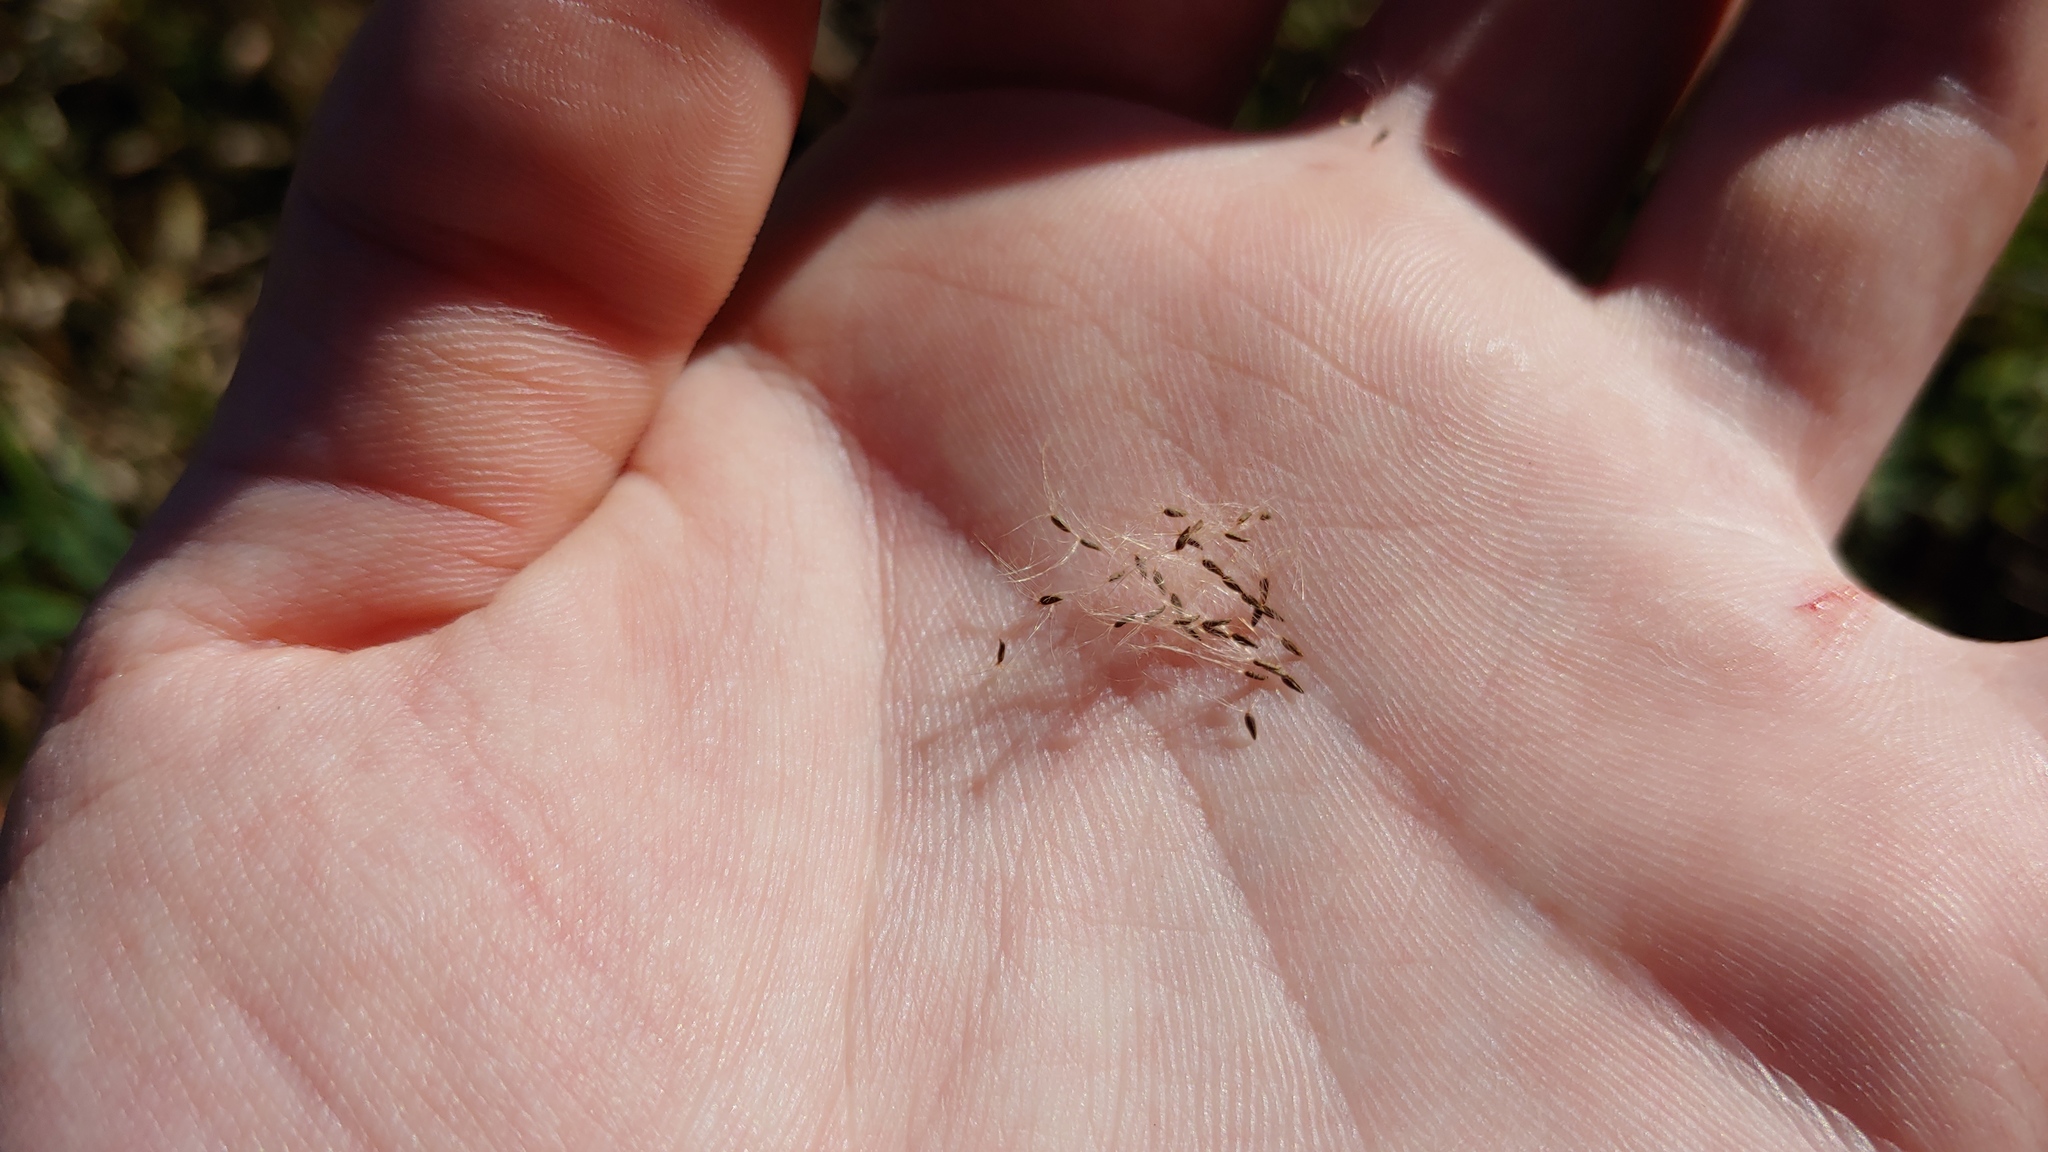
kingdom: Plantae
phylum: Tracheophyta
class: Magnoliopsida
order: Myrtales
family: Onagraceae
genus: Epilobium
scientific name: Epilobium ciliatum
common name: American willowherb
